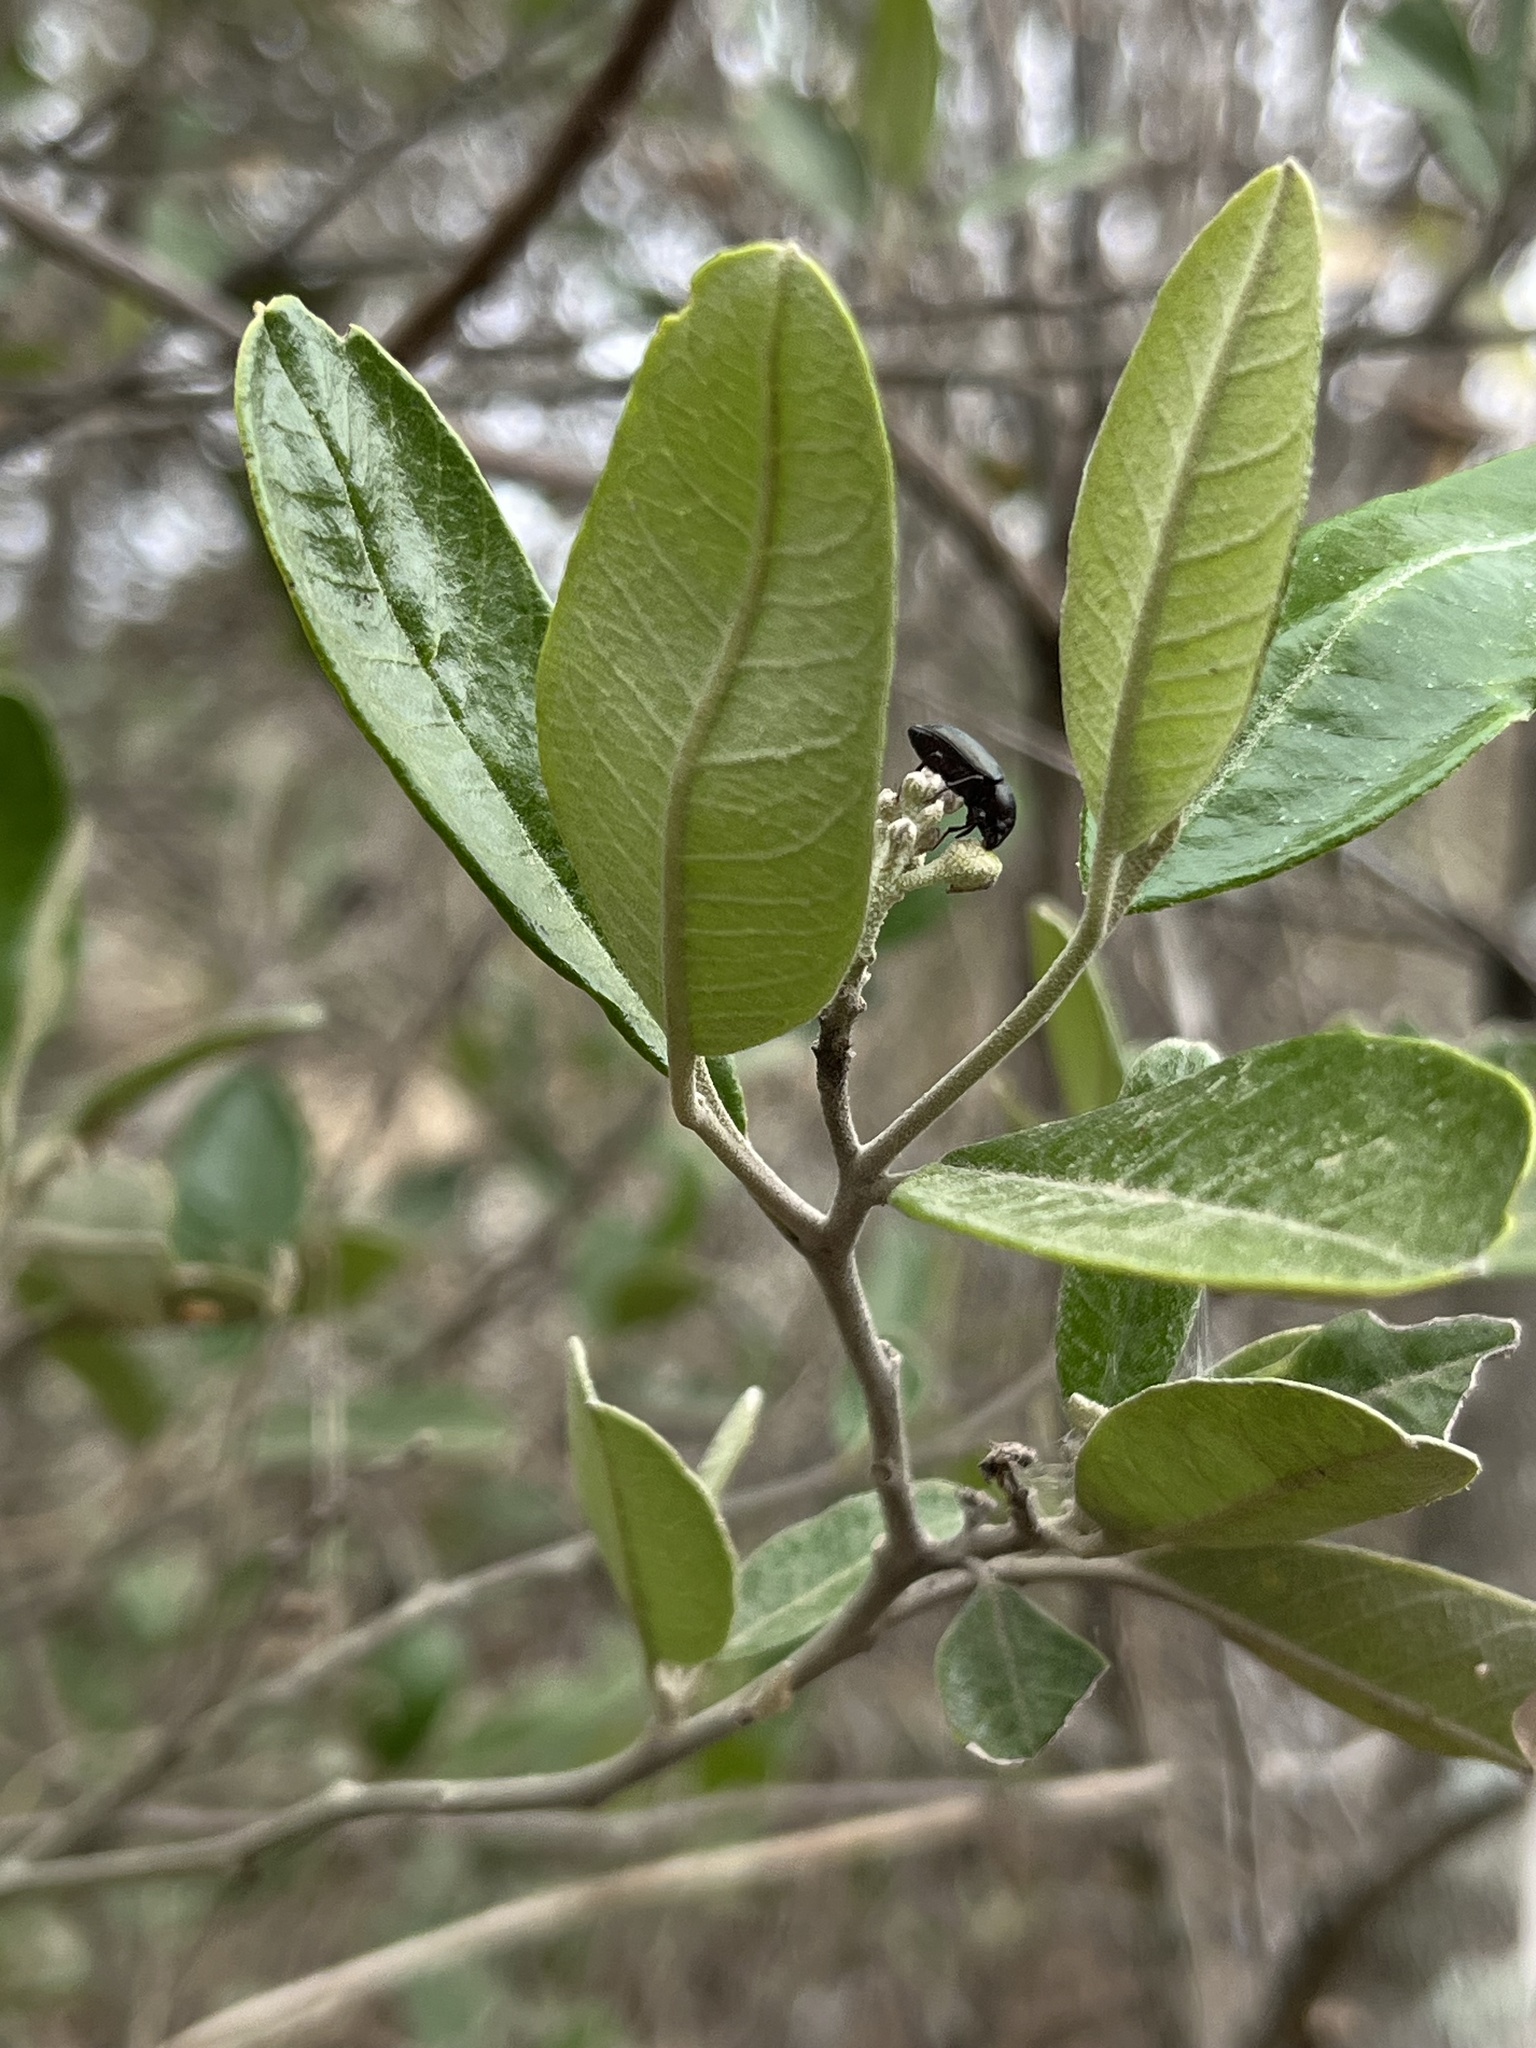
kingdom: Plantae
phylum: Tracheophyta
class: Magnoliopsida
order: Brassicales
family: Capparaceae
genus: Beautempsia
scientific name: Beautempsia avicenniifolia
